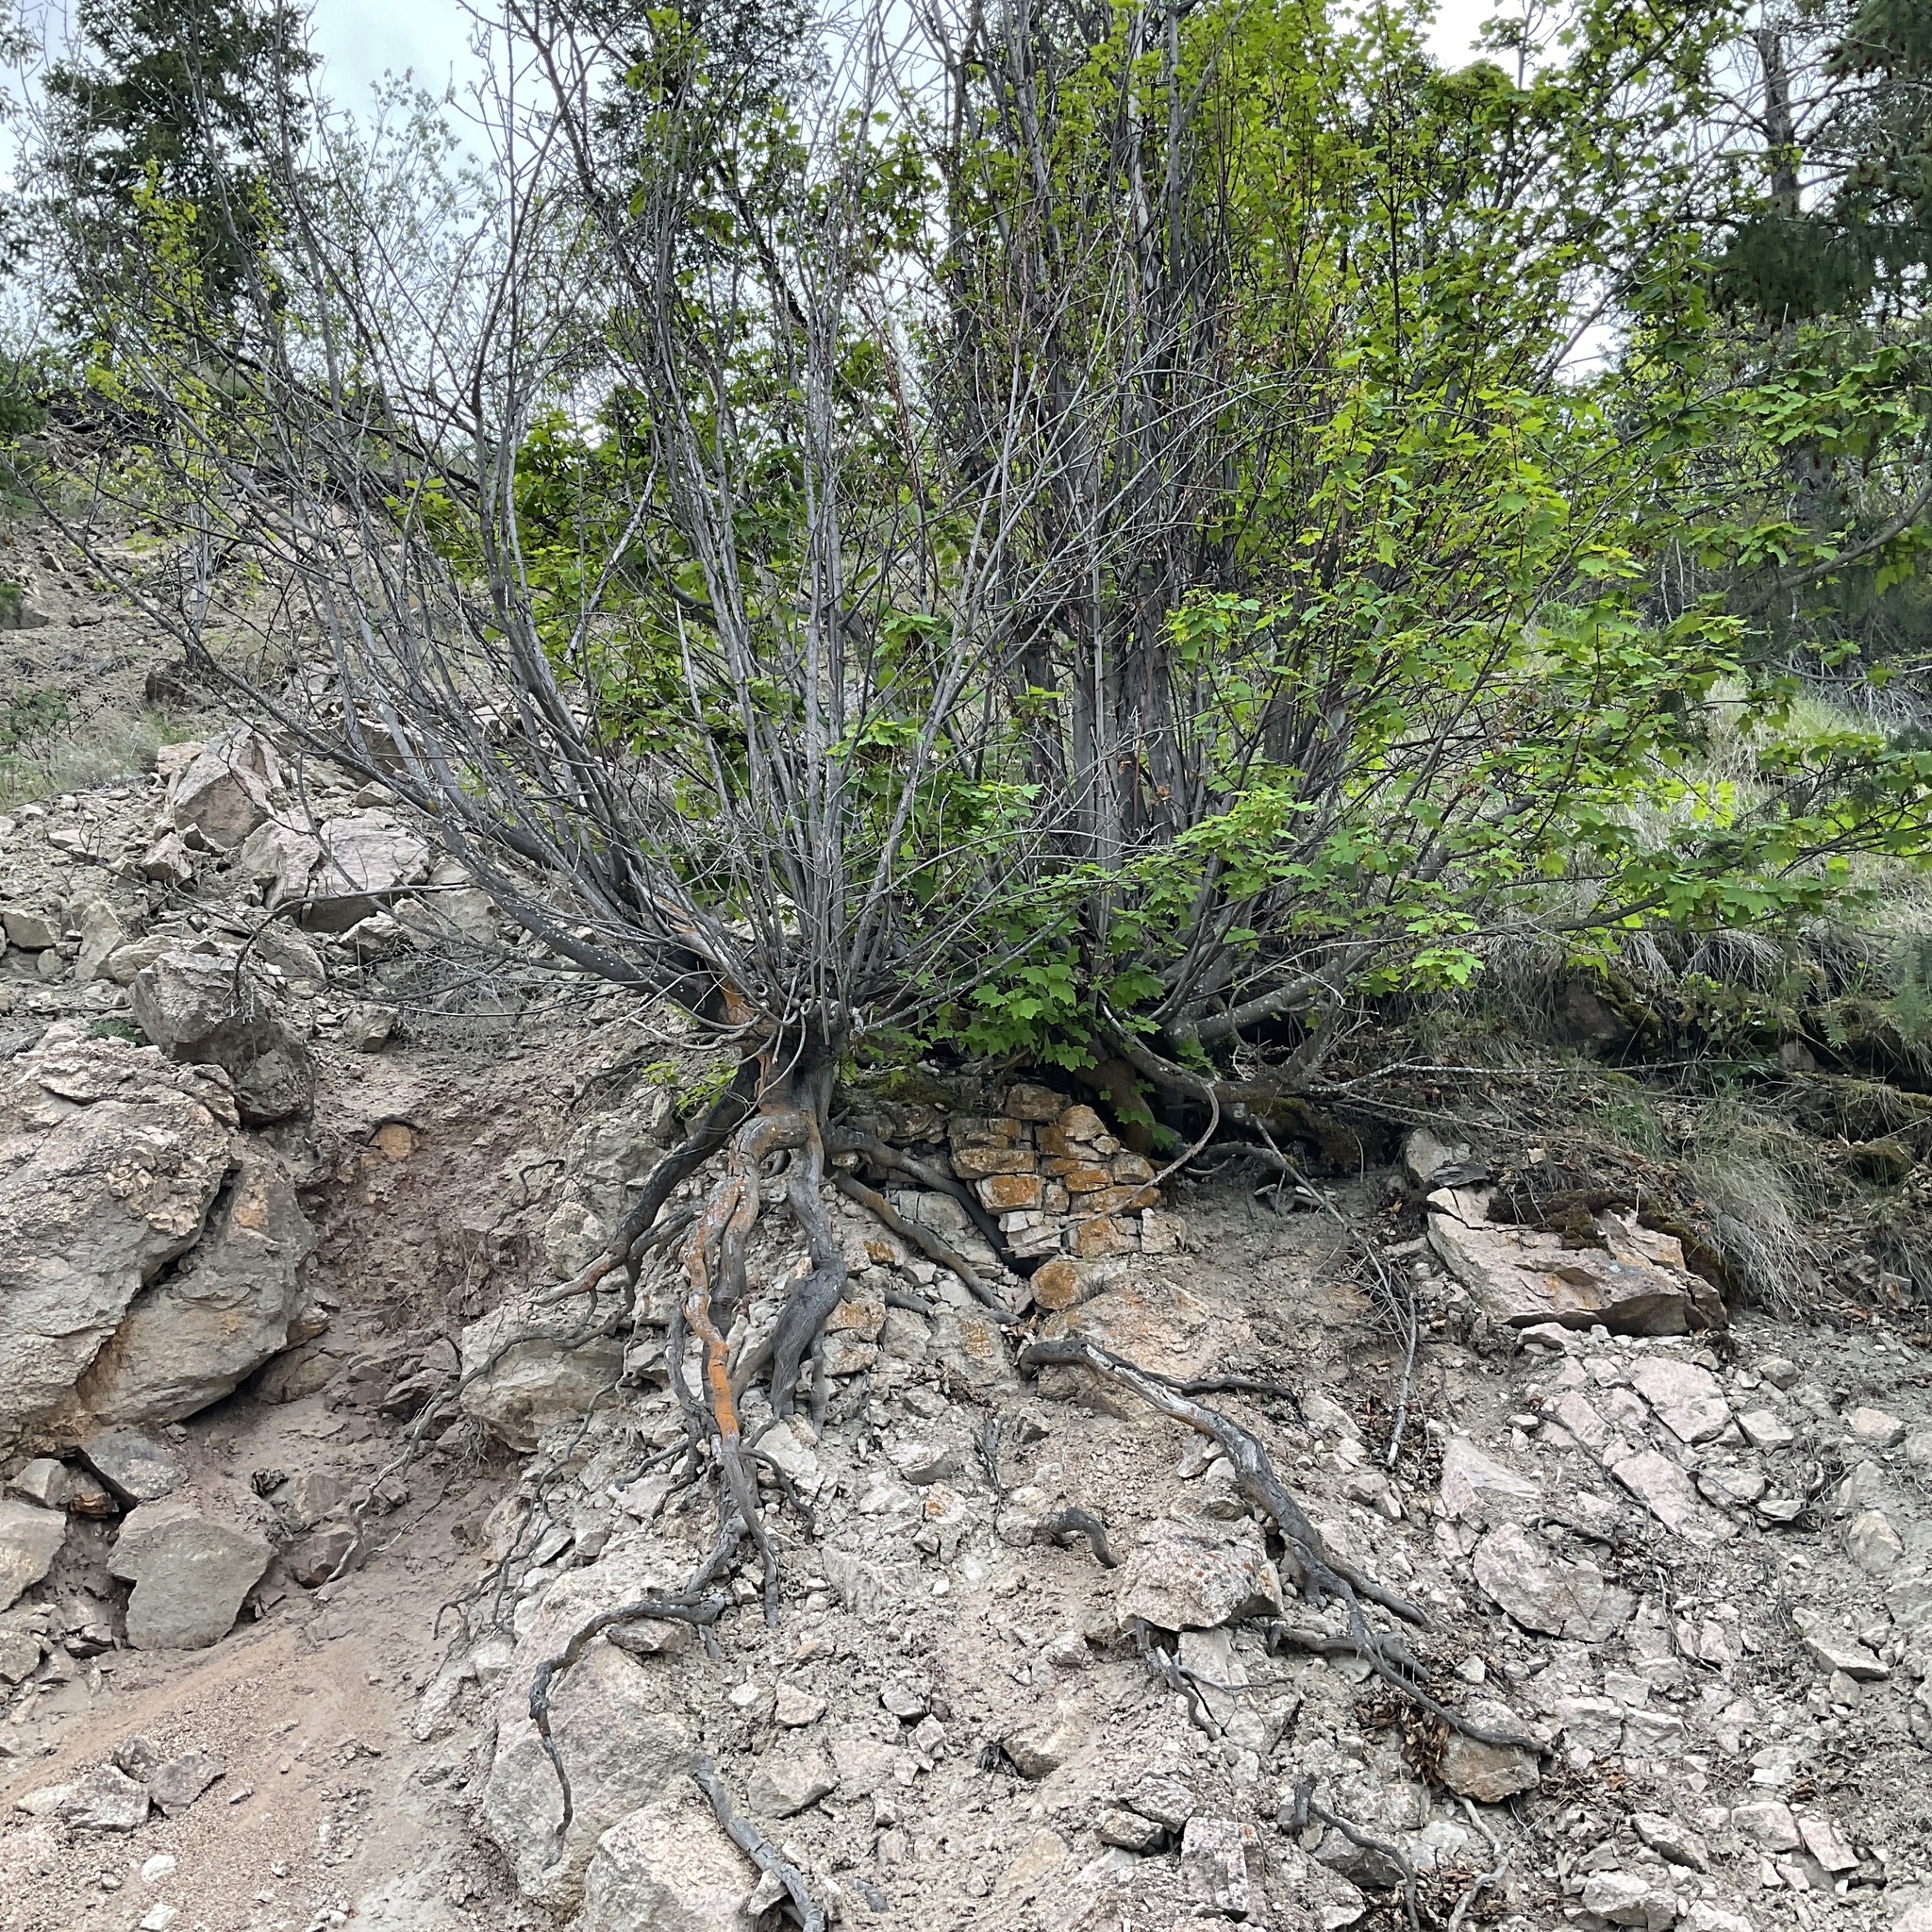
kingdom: Plantae
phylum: Tracheophyta
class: Magnoliopsida
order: Sapindales
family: Sapindaceae
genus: Acer
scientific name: Acer glabrum
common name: Rocky mountain maple
